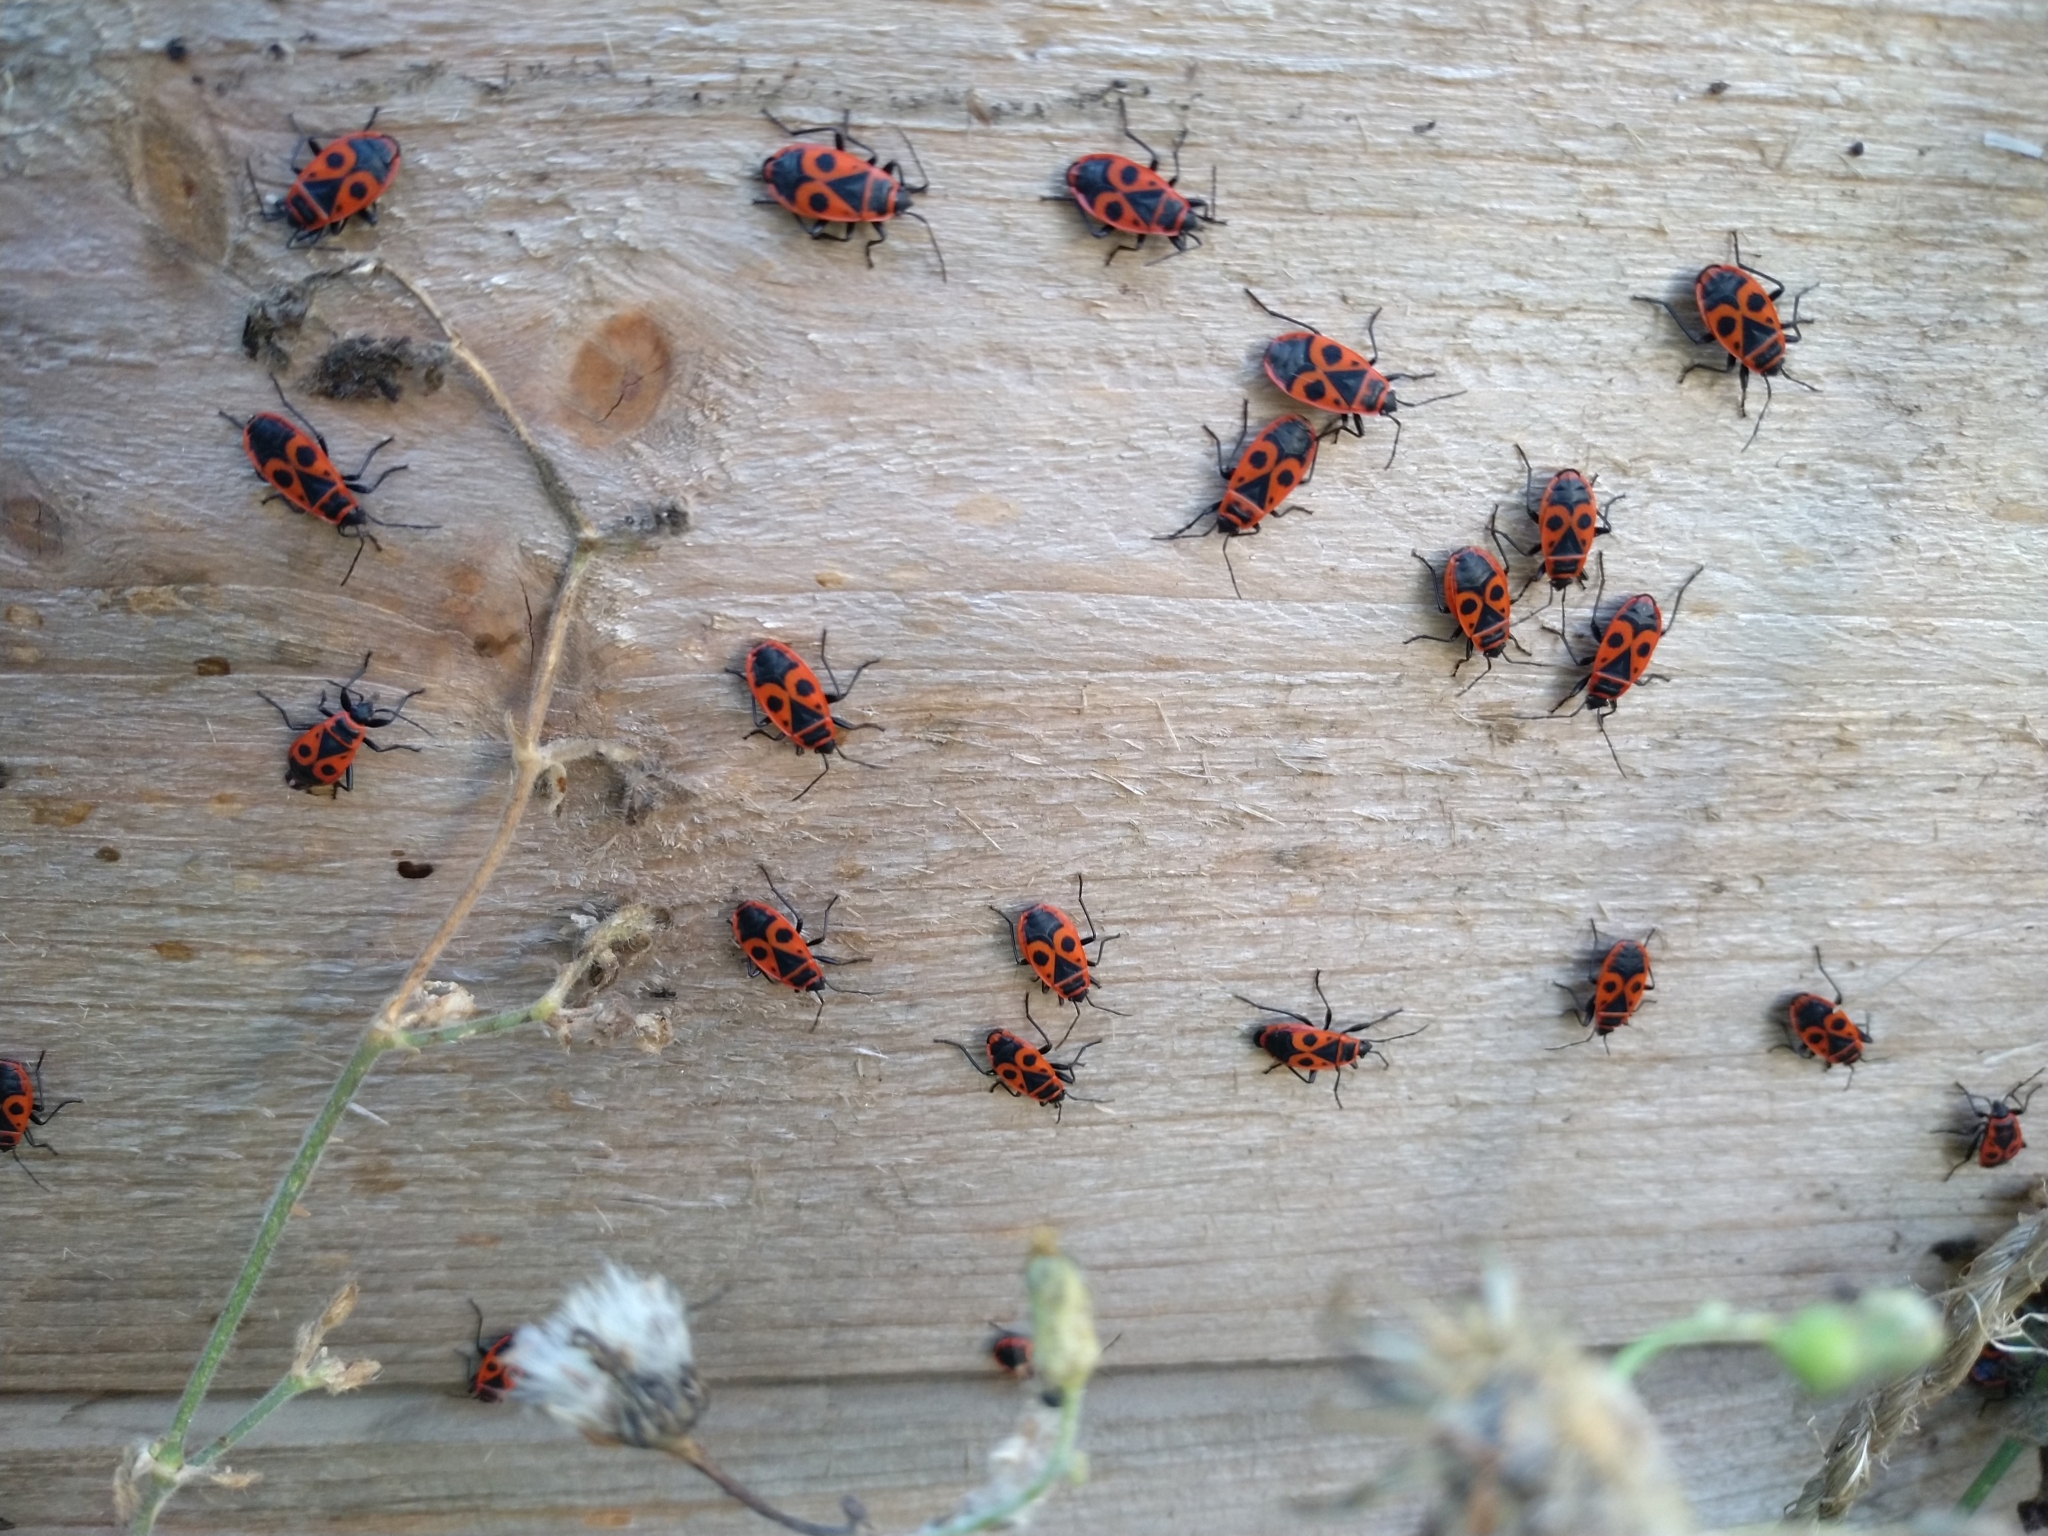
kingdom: Animalia
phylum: Arthropoda
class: Insecta
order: Hemiptera
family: Pyrrhocoridae
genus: Pyrrhocoris
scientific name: Pyrrhocoris apterus
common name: Firebug
